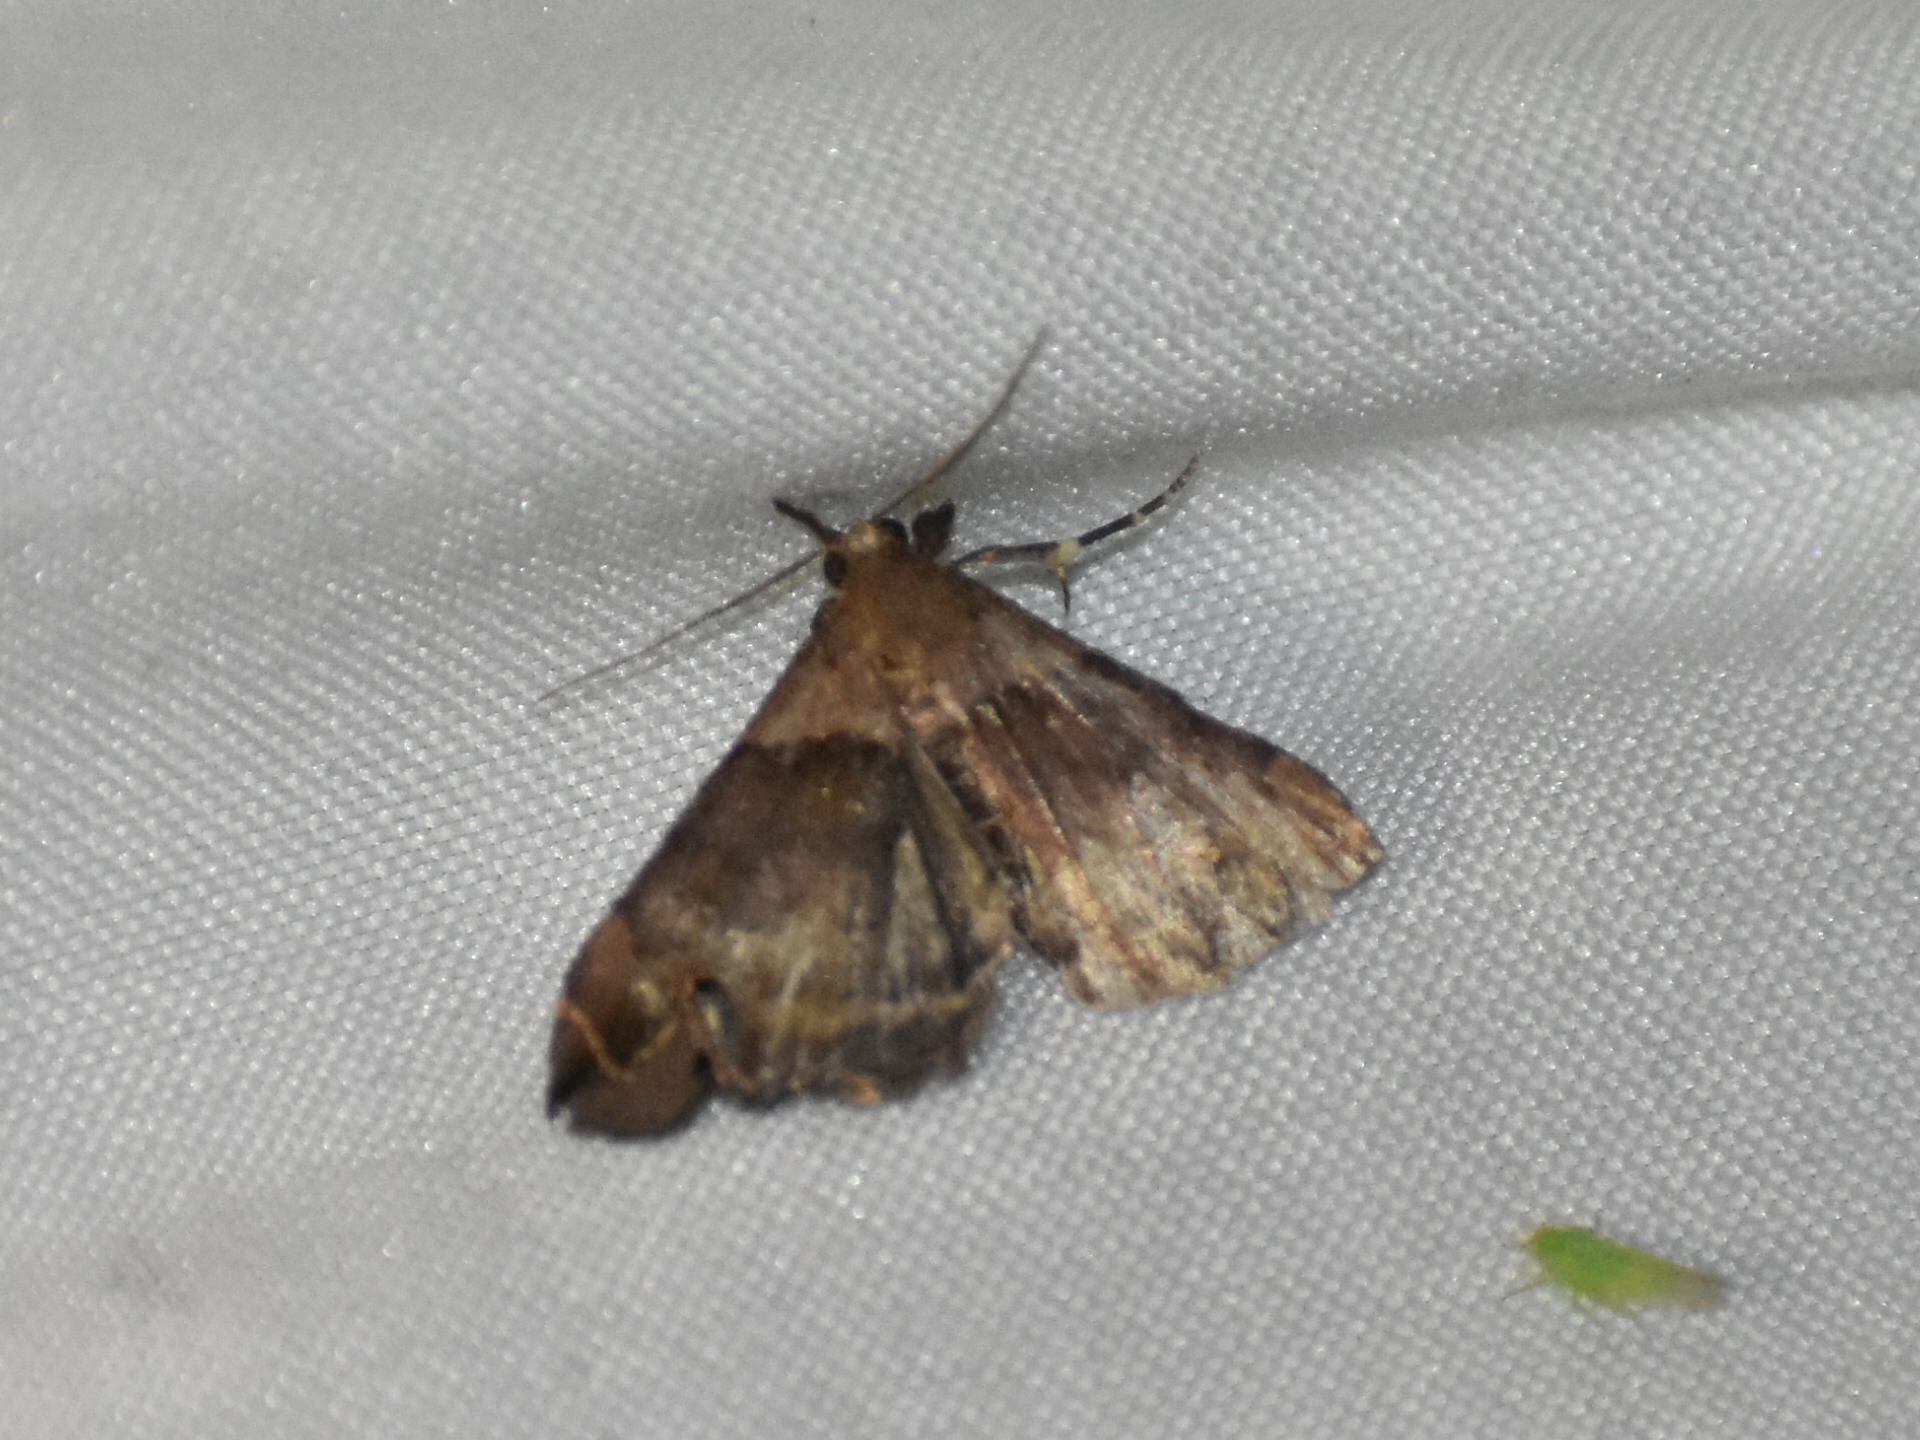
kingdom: Animalia
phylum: Arthropoda
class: Insecta
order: Lepidoptera
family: Erebidae
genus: Lascoria
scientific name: Lascoria ambigualis
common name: Ambiguous moth
